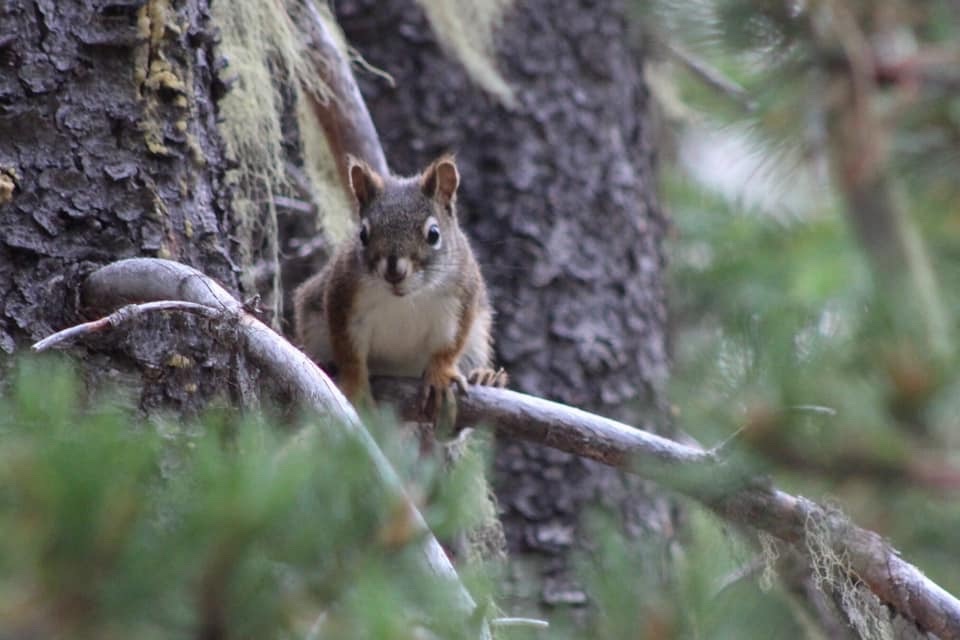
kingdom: Animalia
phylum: Chordata
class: Mammalia
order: Rodentia
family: Sciuridae
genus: Tamiasciurus
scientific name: Tamiasciurus hudsonicus
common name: Red squirrel
